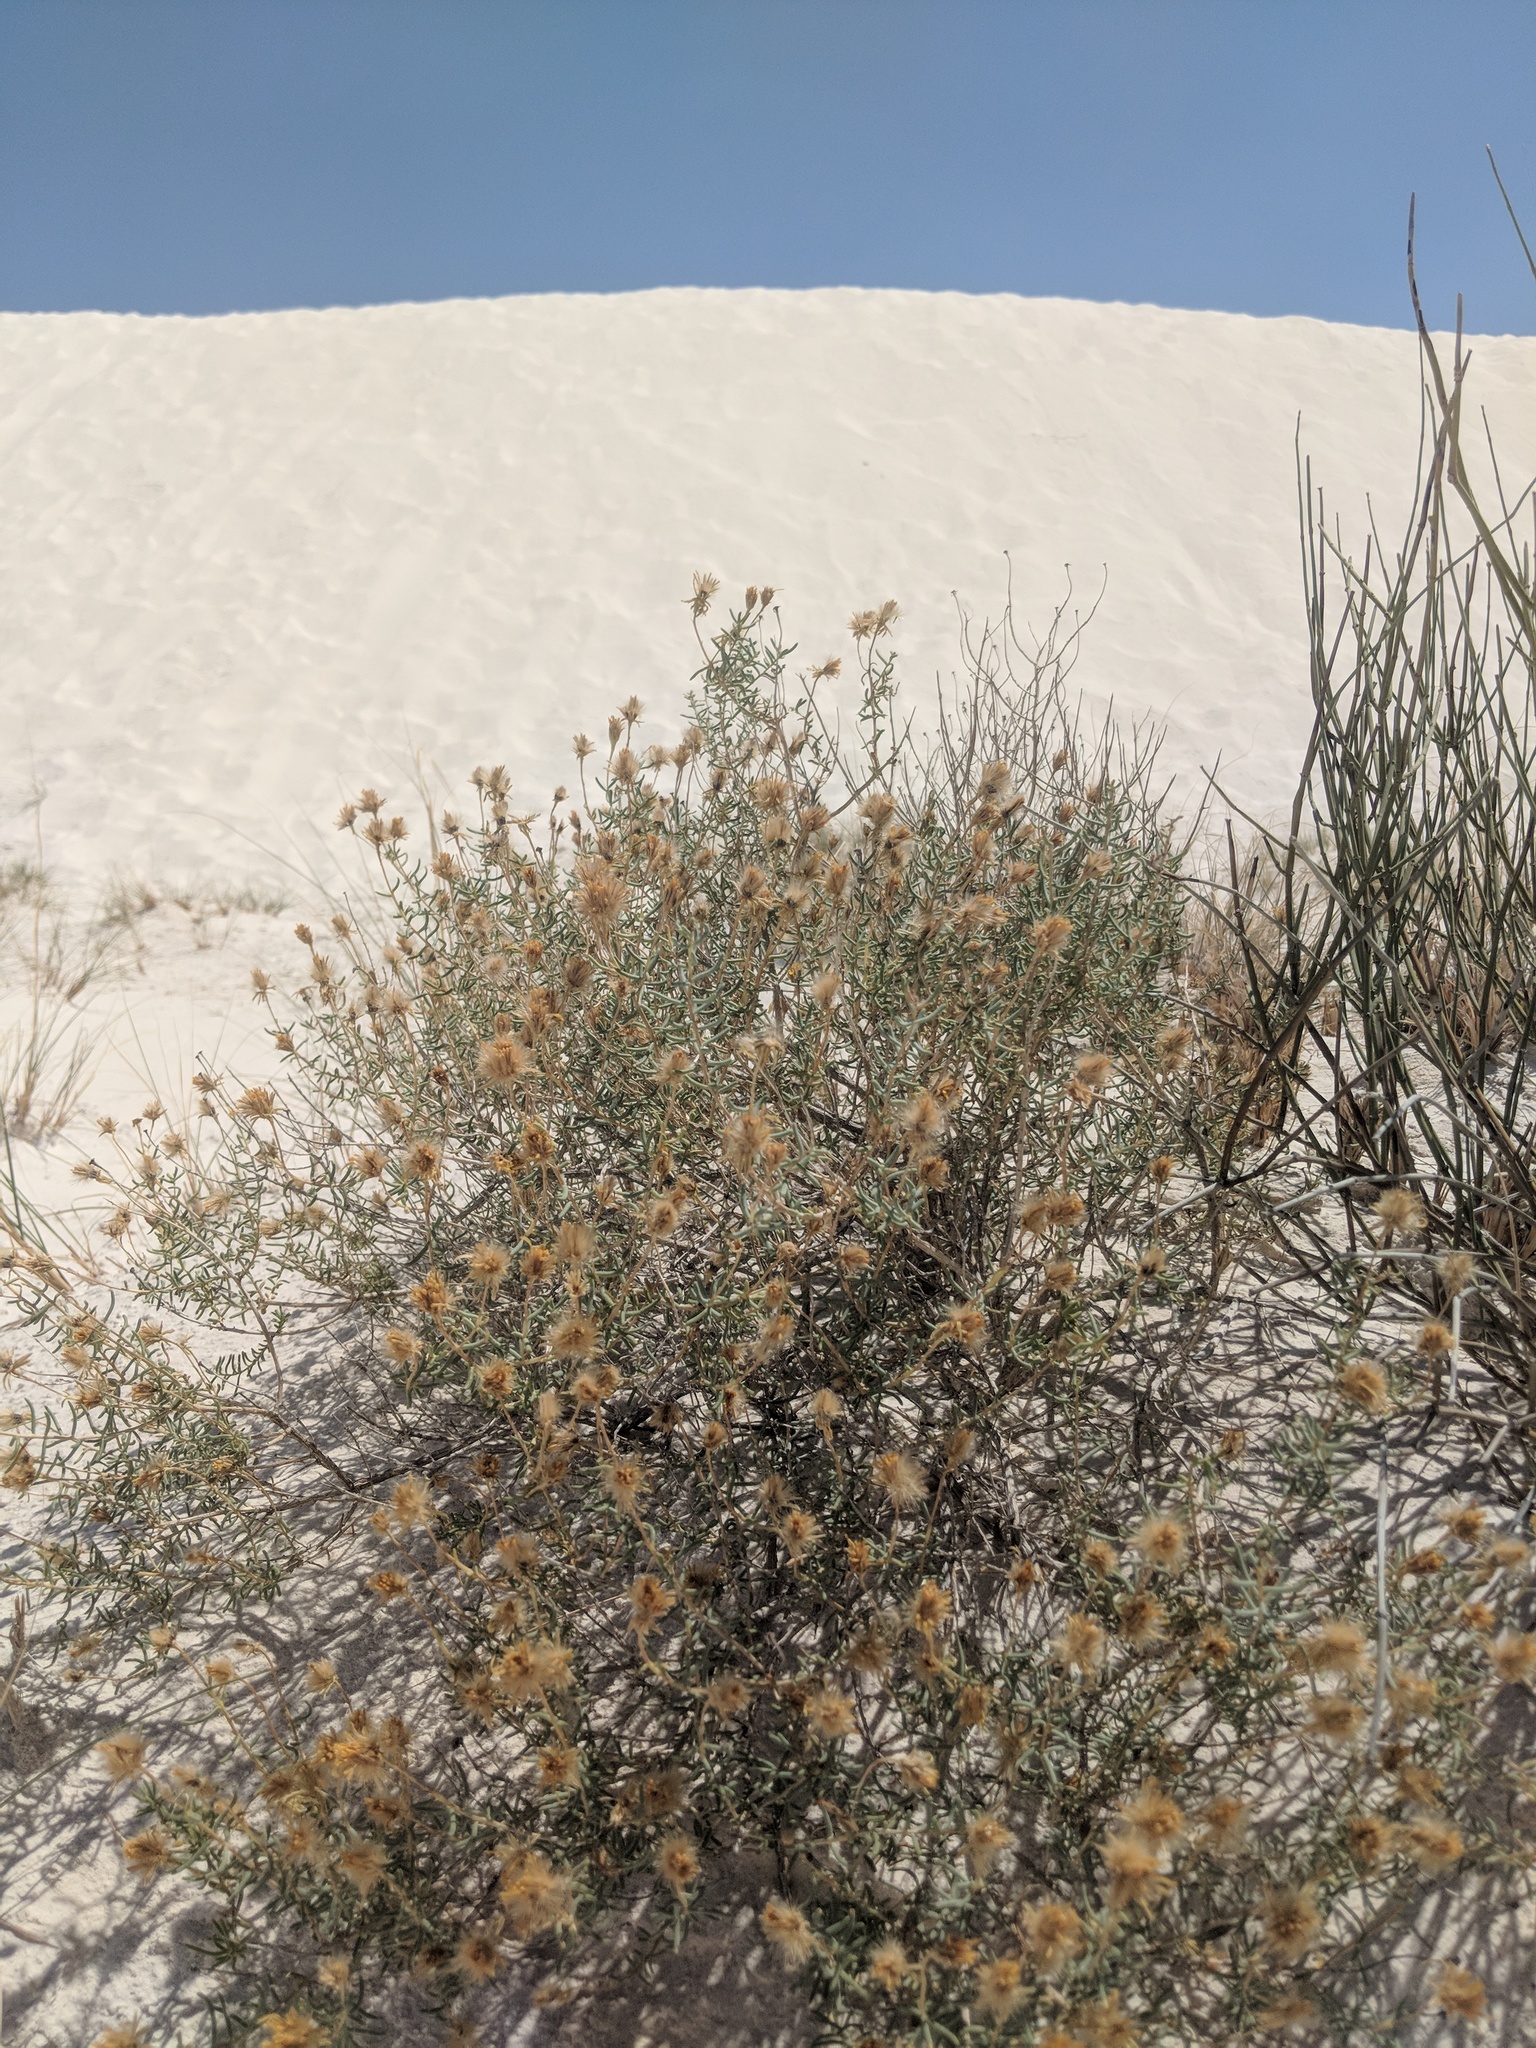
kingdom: Plantae
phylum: Tracheophyta
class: Magnoliopsida
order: Asterales
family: Asteraceae
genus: Pseudoclappia
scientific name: Pseudoclappia arenaria
